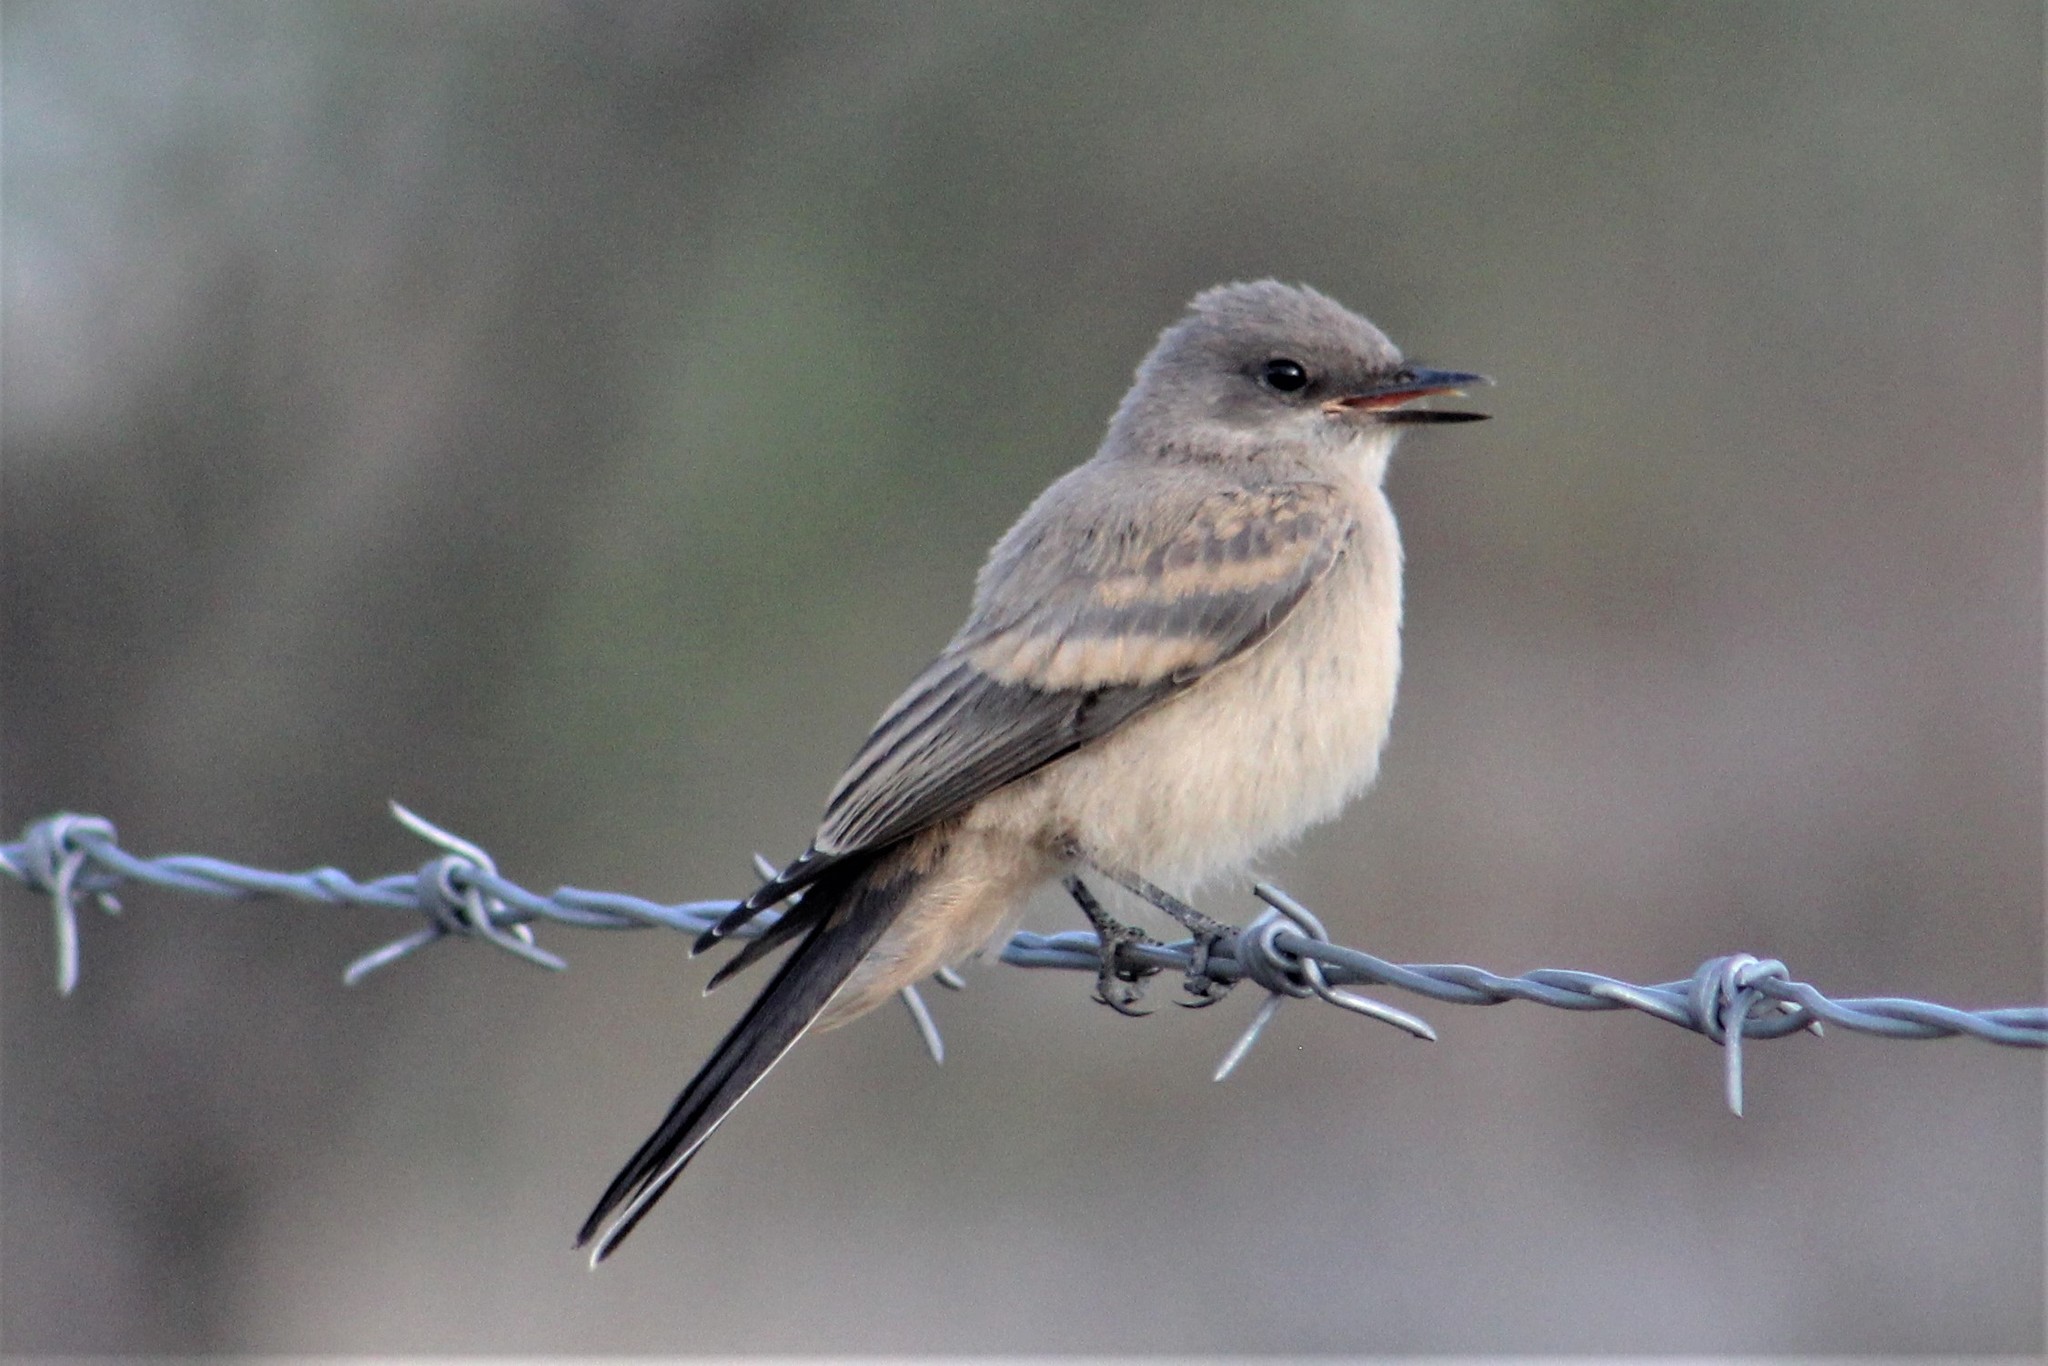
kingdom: Animalia
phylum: Chordata
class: Aves
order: Passeriformes
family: Tyrannidae
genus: Sayornis
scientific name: Sayornis saya
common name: Say's phoebe
